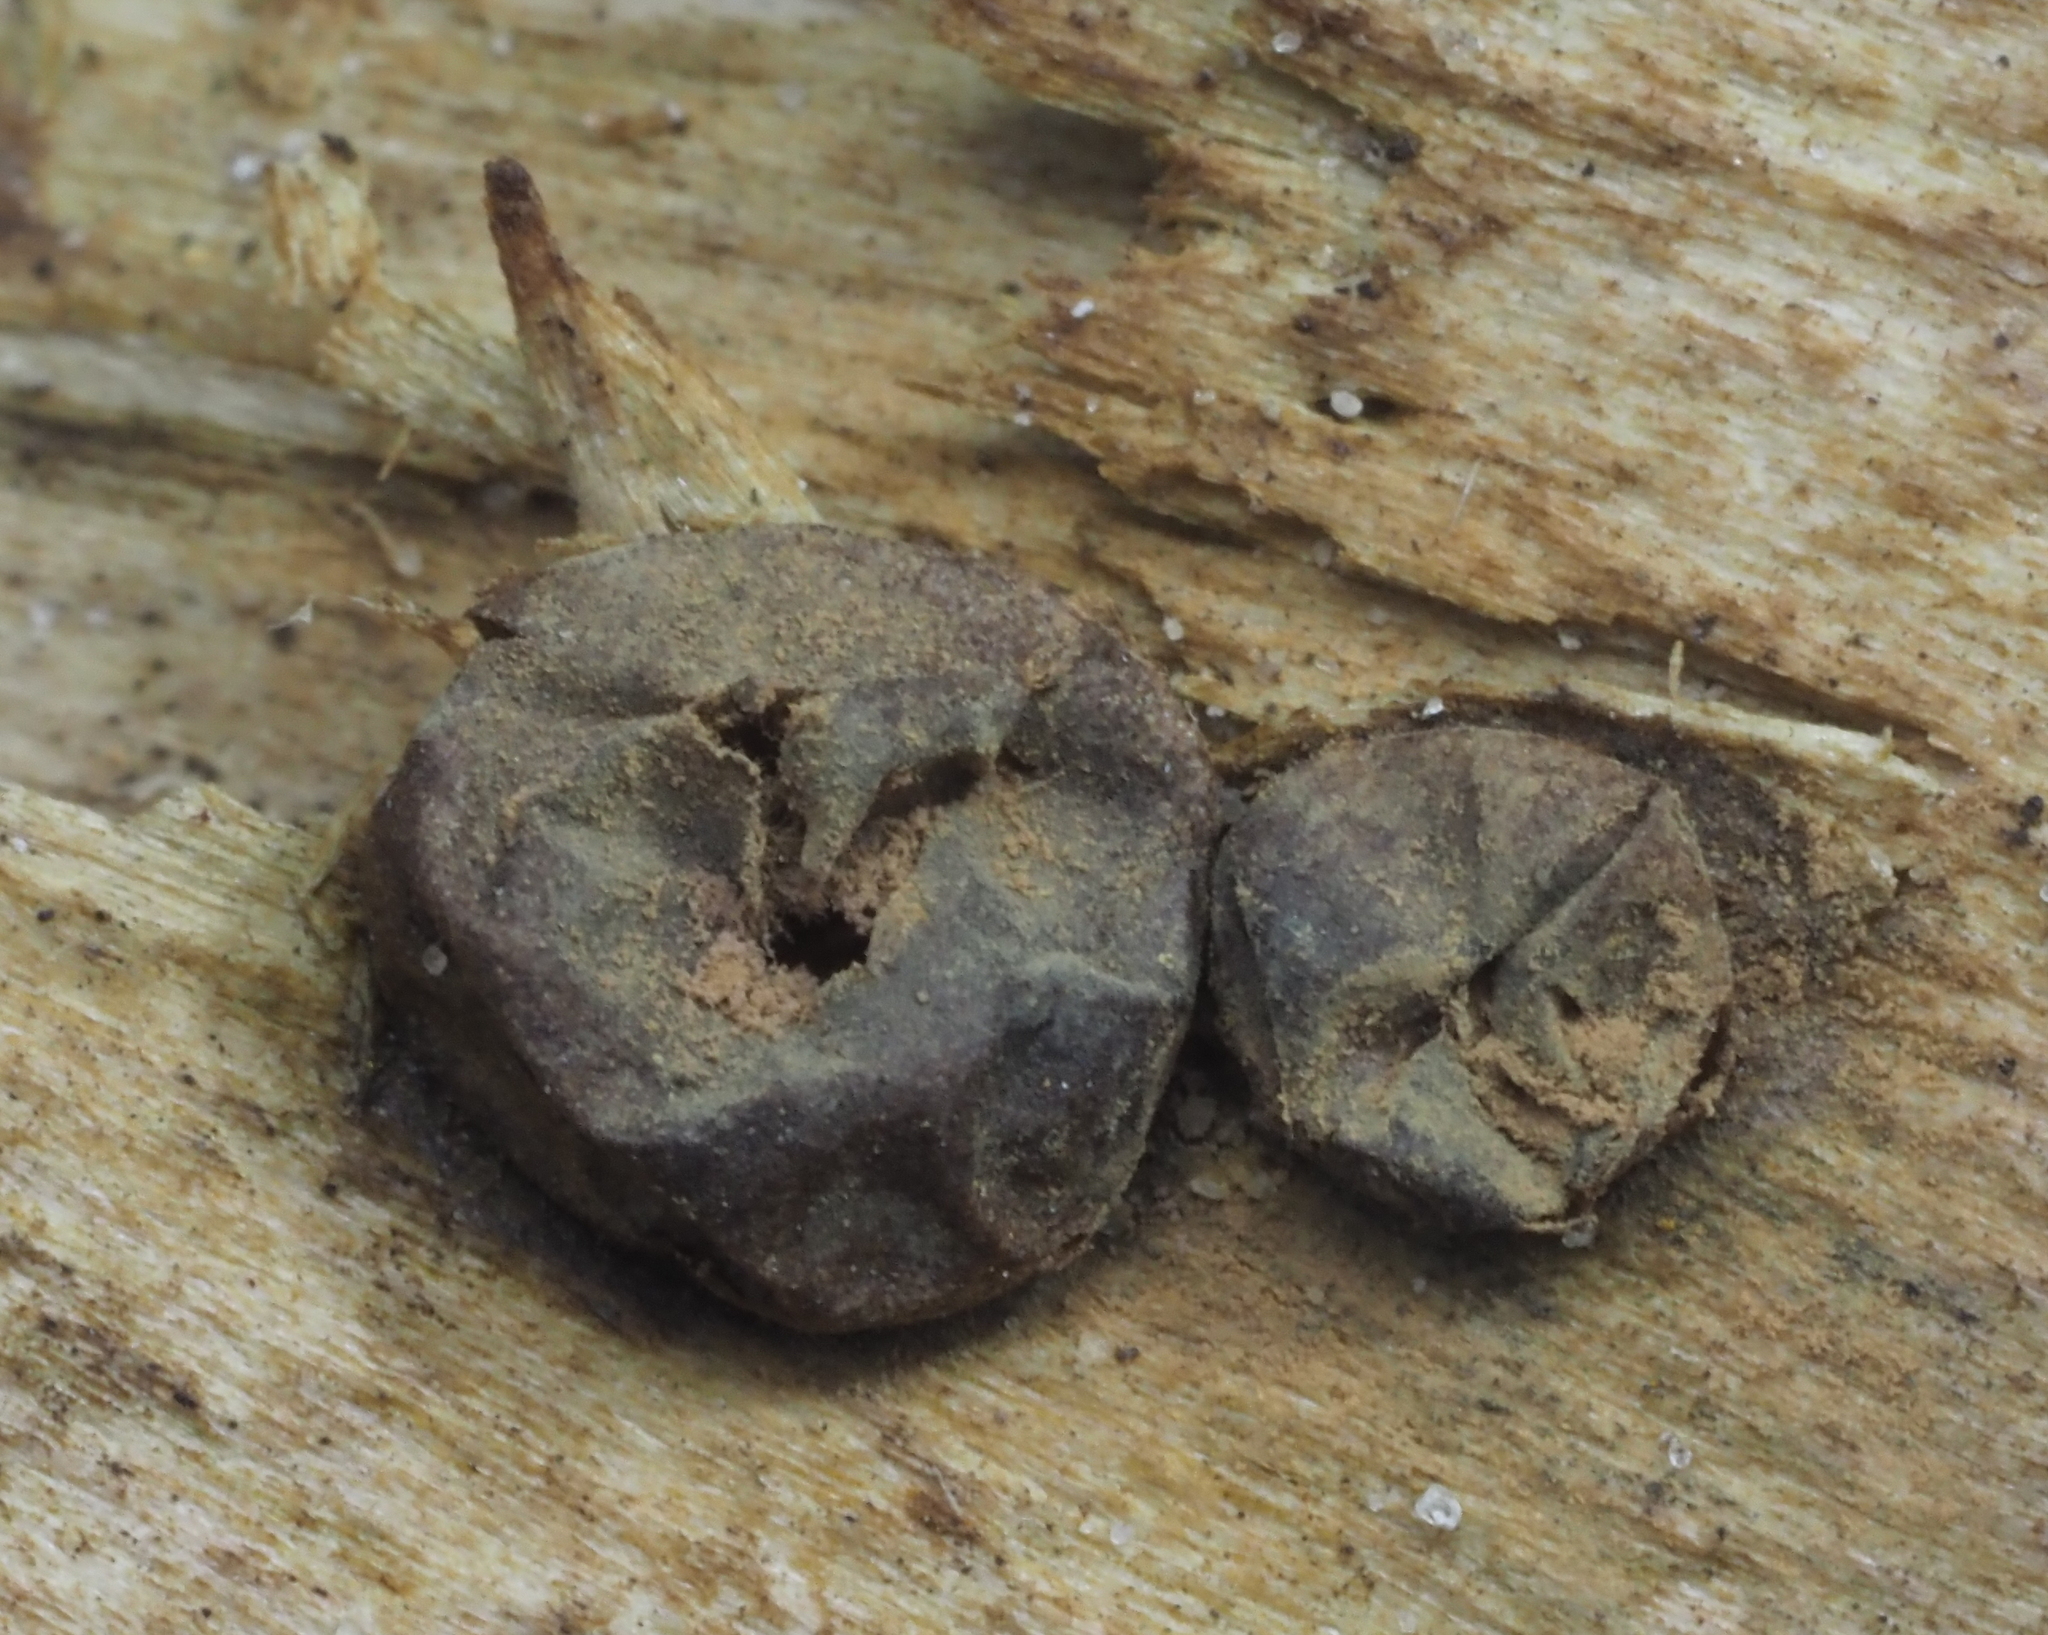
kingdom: Protozoa
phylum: Mycetozoa
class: Myxomycetes
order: Cribrariales
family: Tubiferaceae
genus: Lycogala
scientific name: Lycogala epidendrum
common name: Wolf's milk
